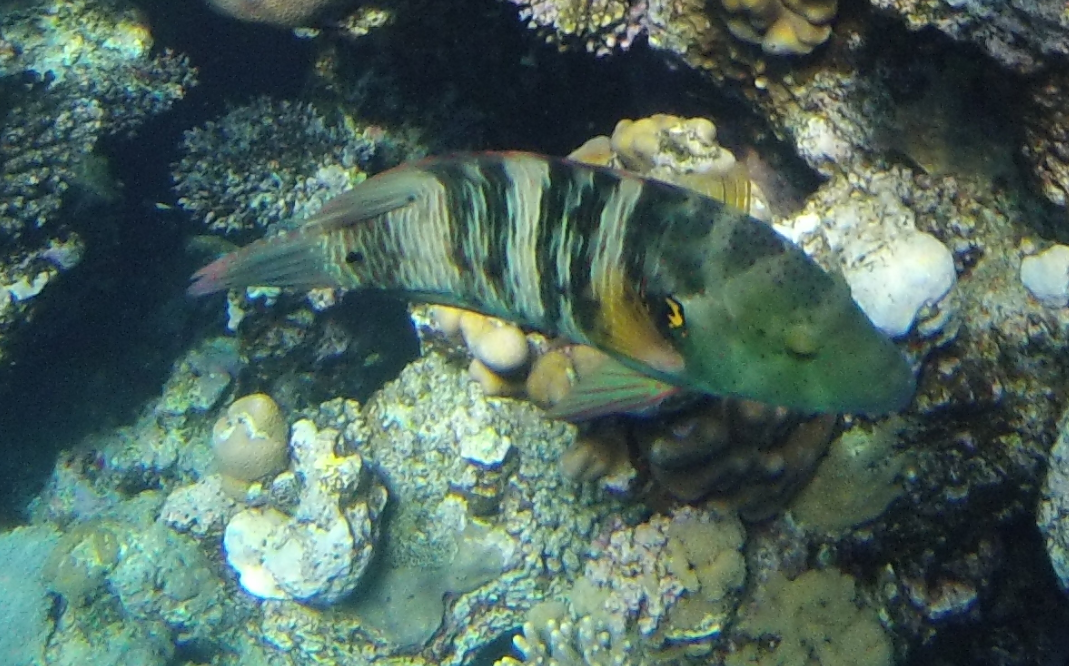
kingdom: Animalia
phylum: Chordata
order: Perciformes
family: Labridae
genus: Cheilinus
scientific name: Cheilinus lunulatus
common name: Broomtail wrasse
